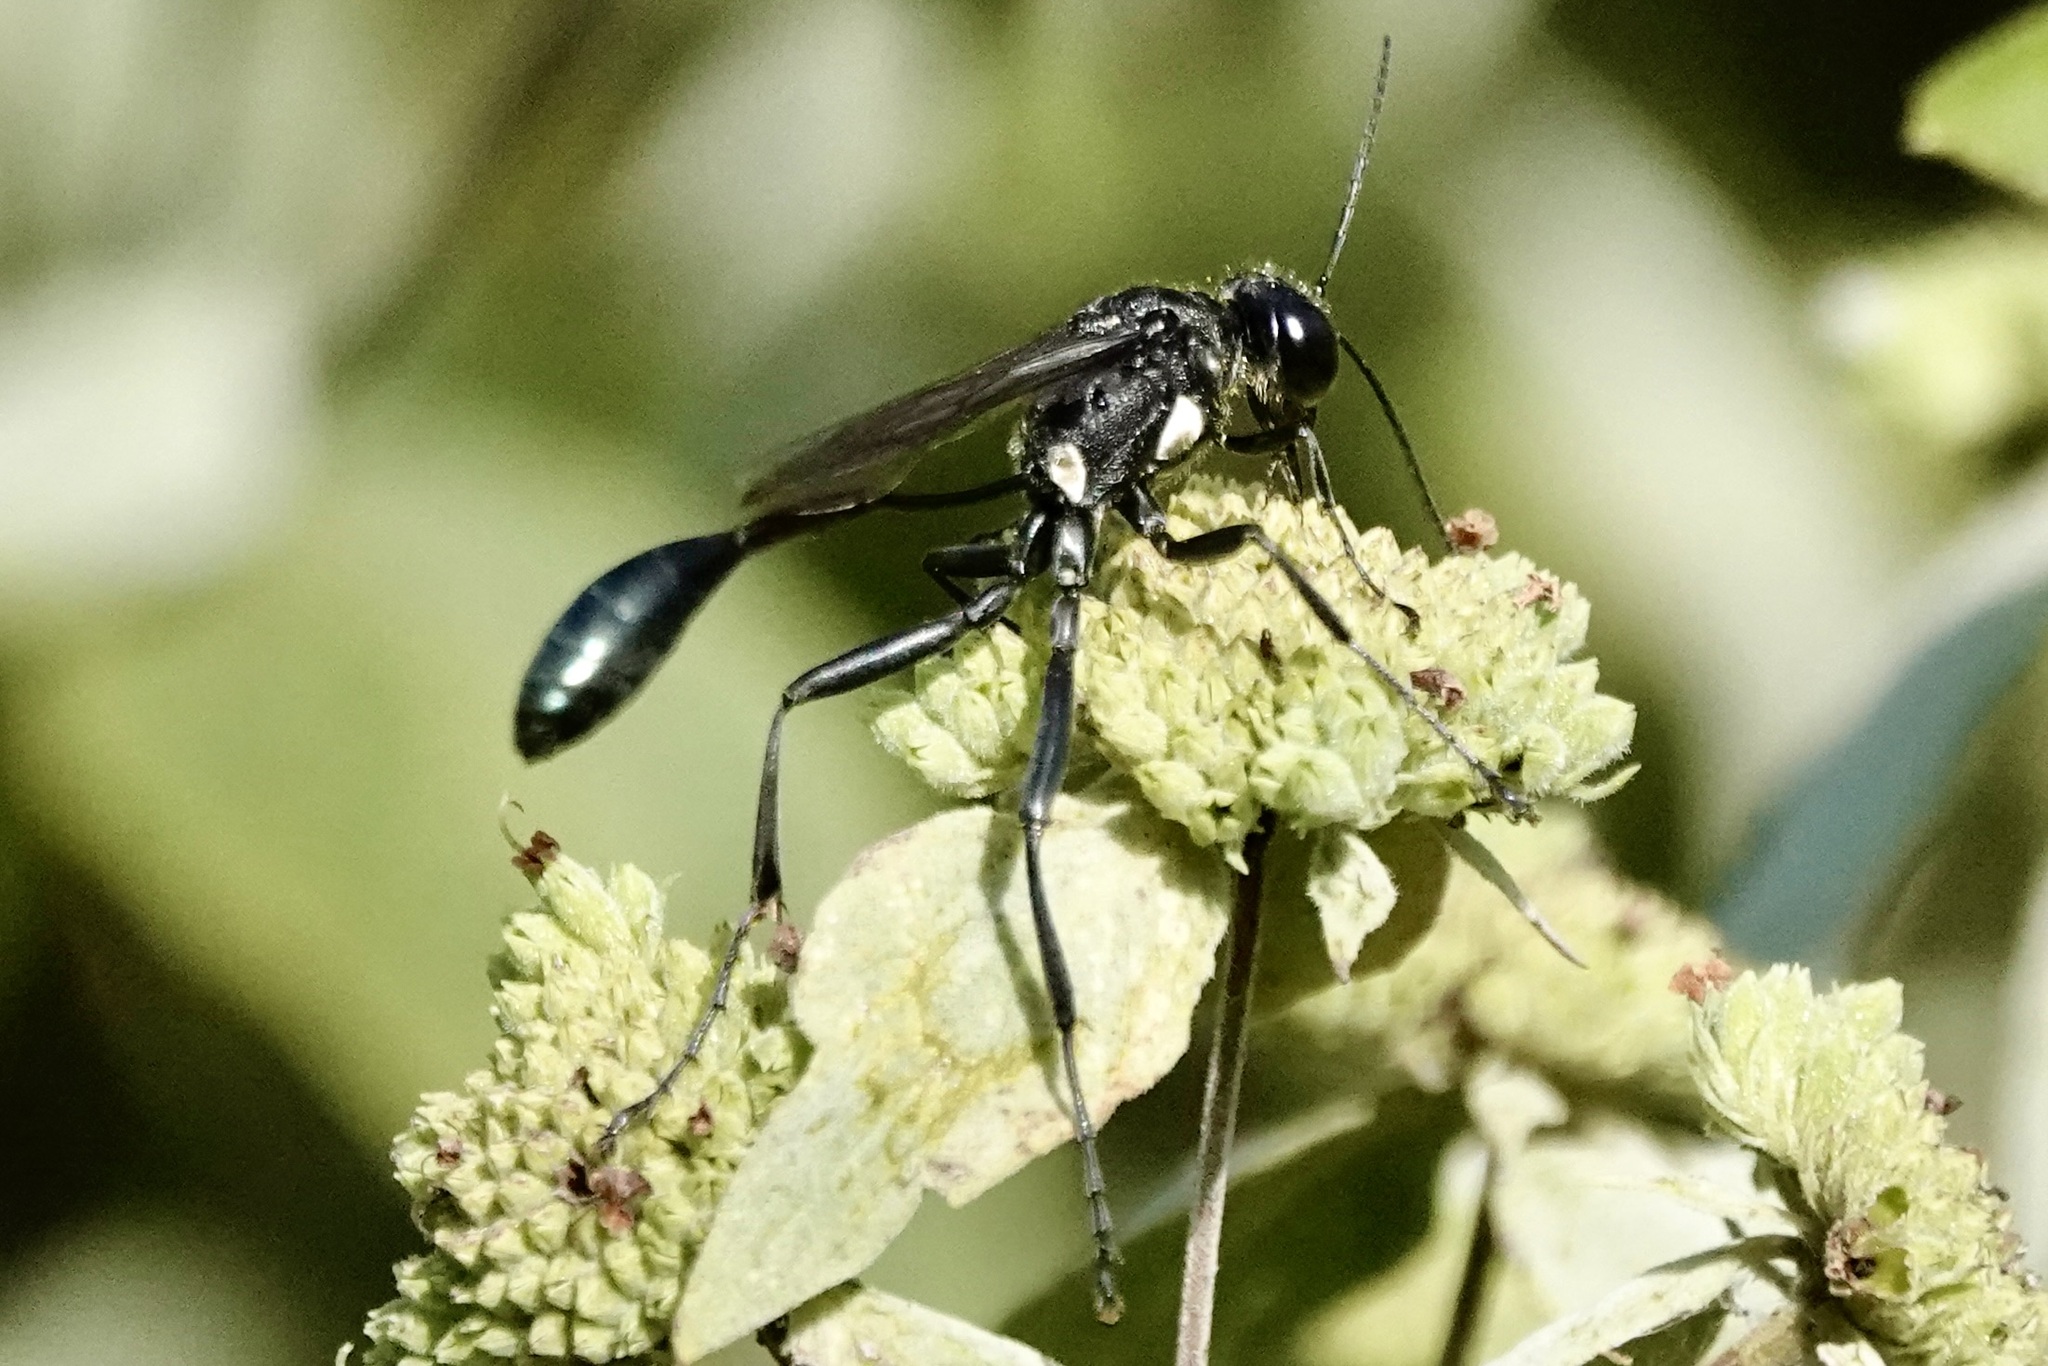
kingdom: Animalia
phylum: Arthropoda
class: Insecta
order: Hymenoptera
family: Sphecidae
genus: Eremnophila
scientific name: Eremnophila aureonotata
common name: Gold-marked thread-waisted wasp
